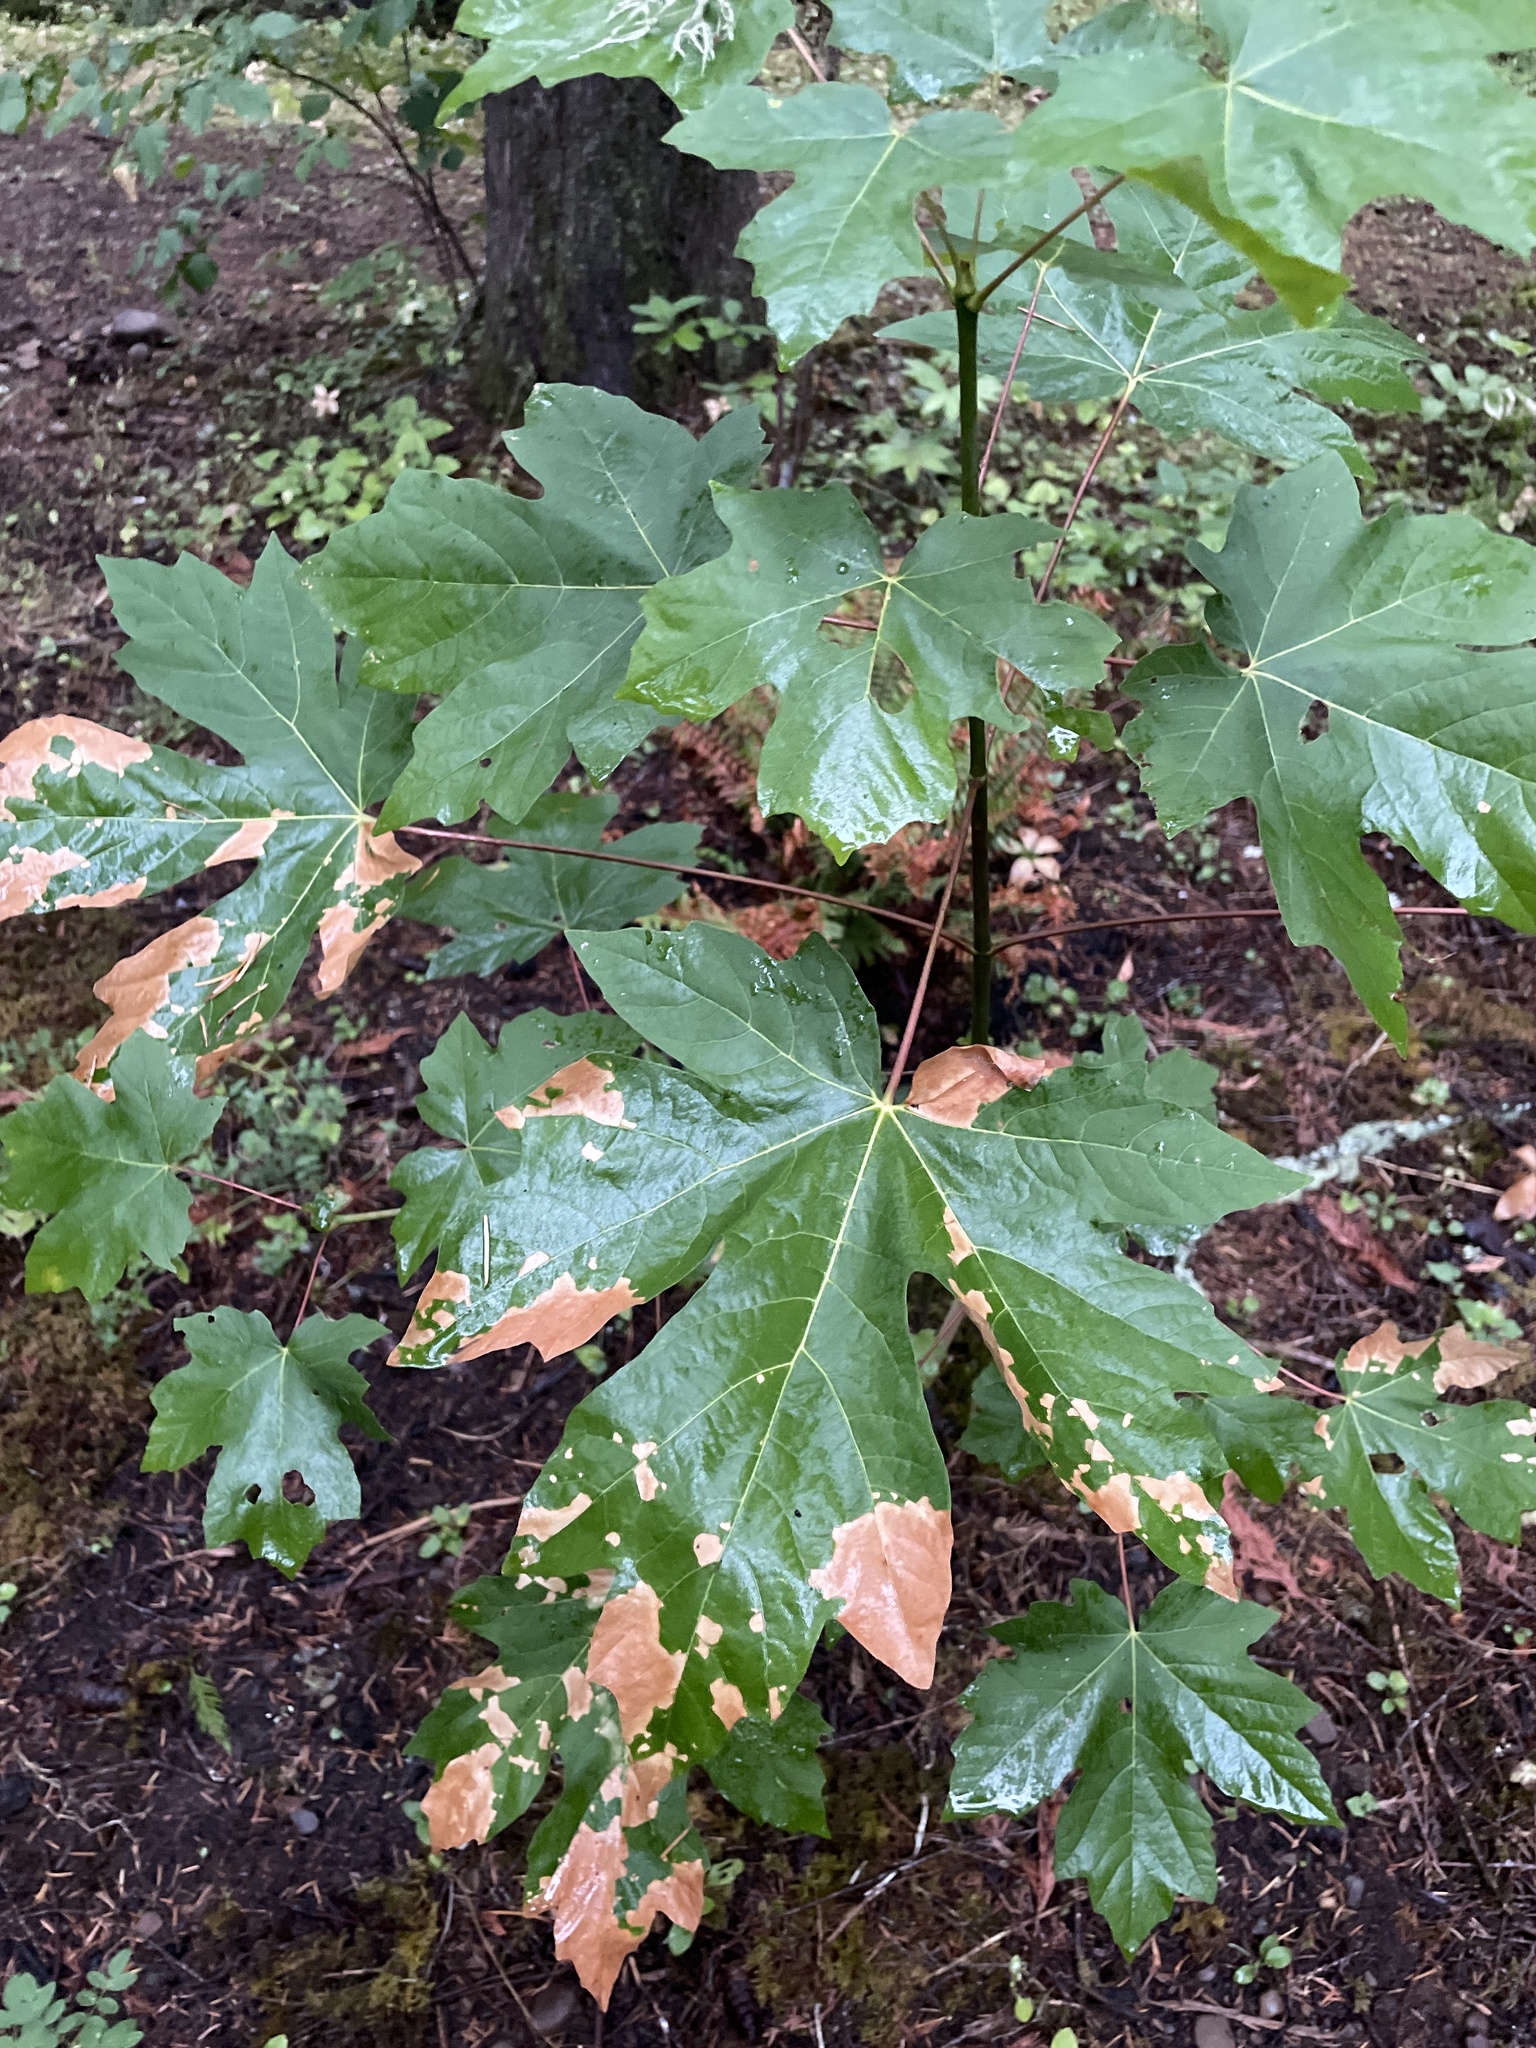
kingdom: Plantae
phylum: Tracheophyta
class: Magnoliopsida
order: Sapindales
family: Sapindaceae
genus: Acer
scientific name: Acer macrophyllum
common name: Oregon maple
